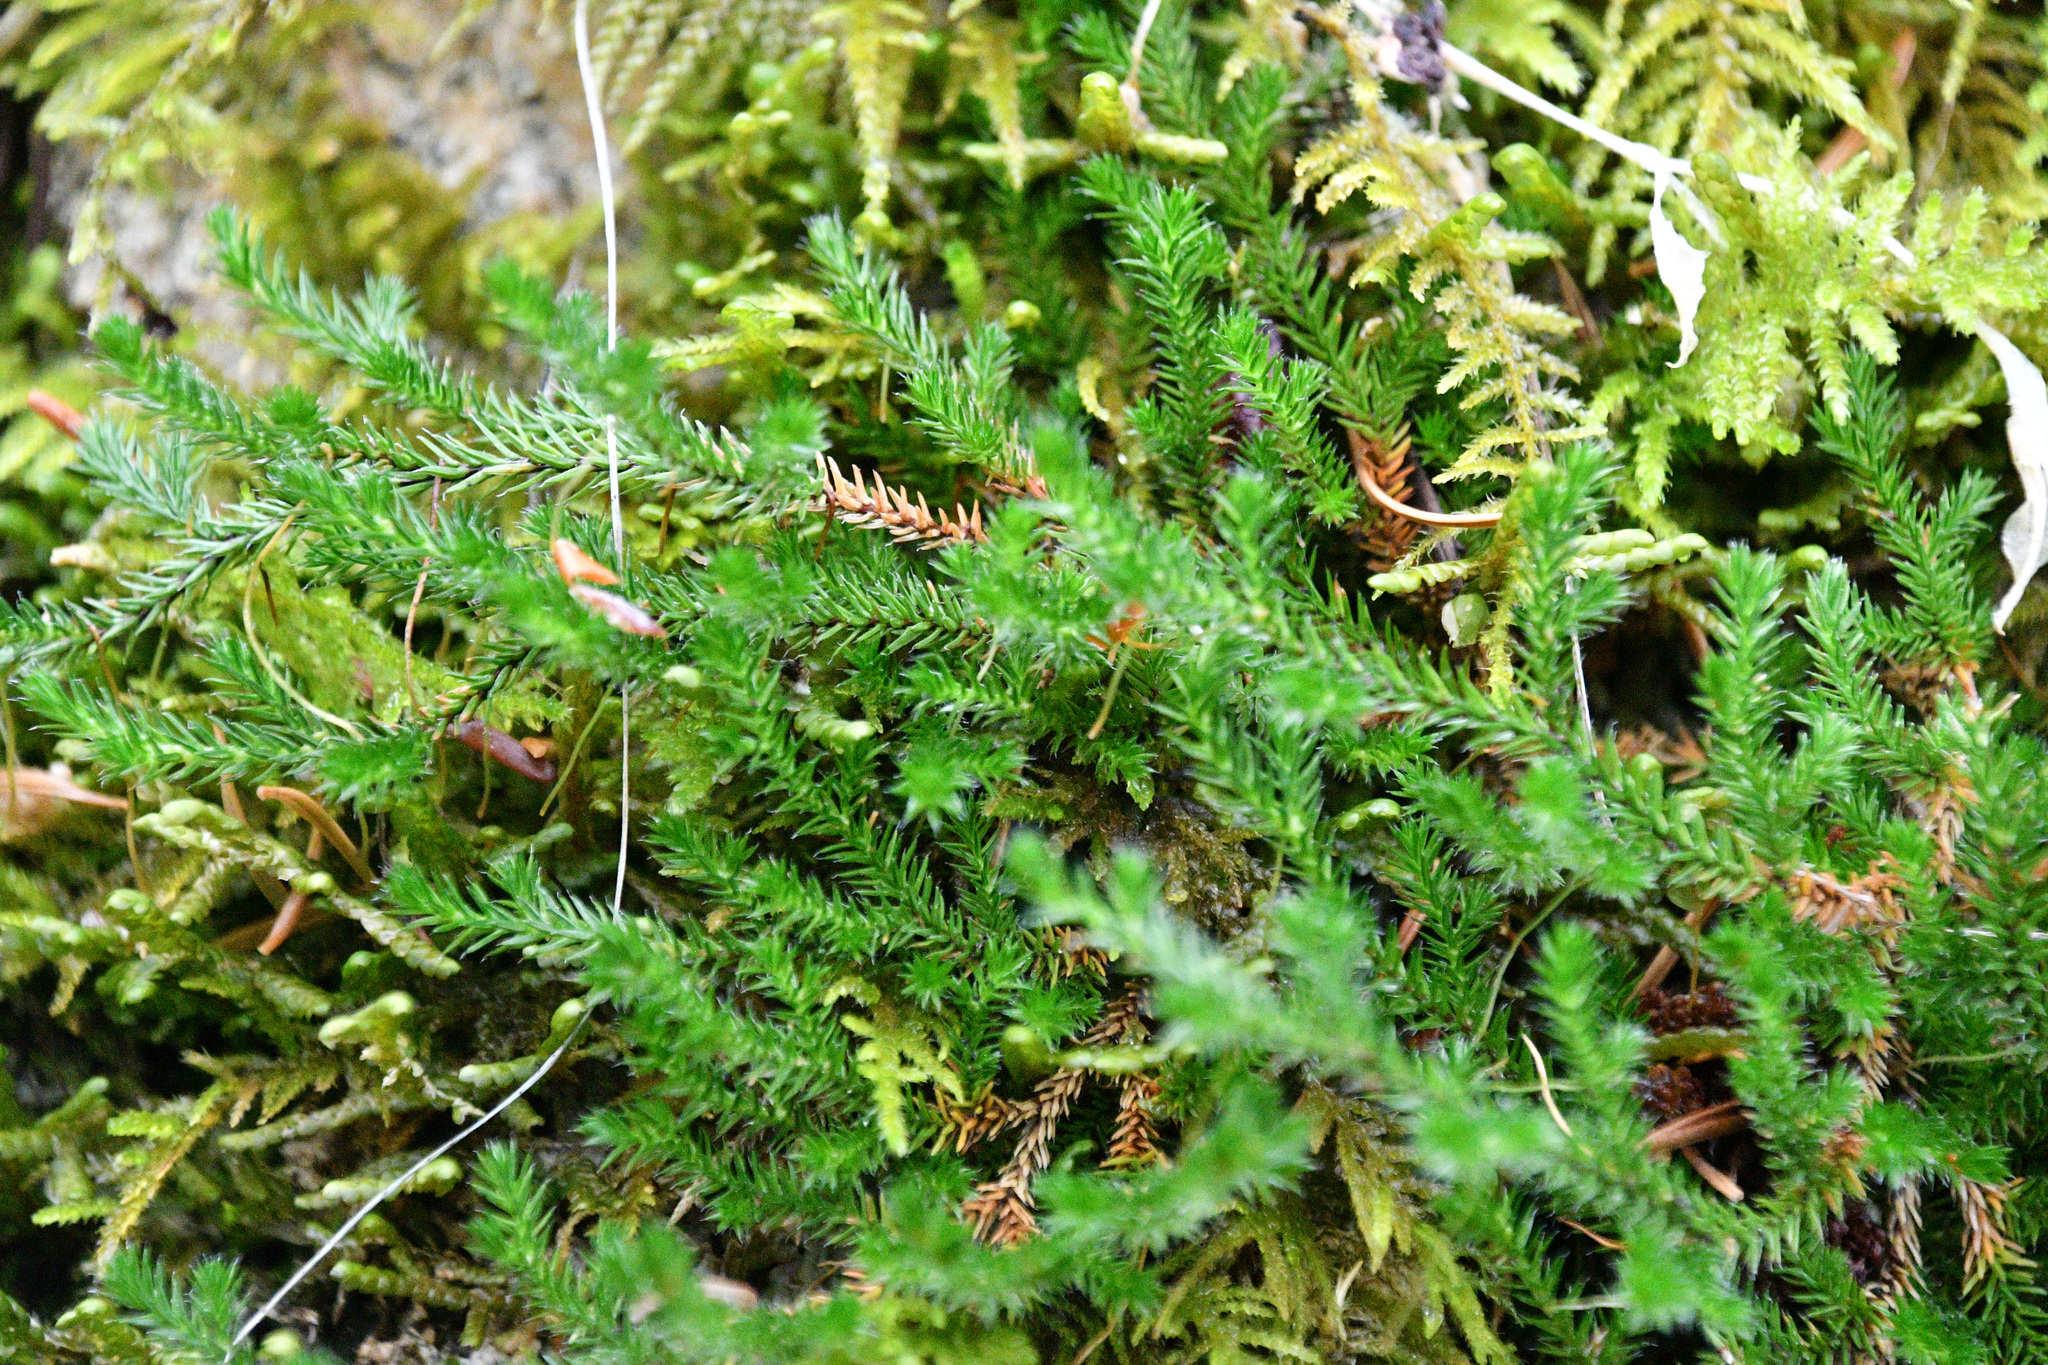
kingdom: Plantae
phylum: Tracheophyta
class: Lycopodiopsida
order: Selaginellales
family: Selaginellaceae
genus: Selaginella
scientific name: Selaginella wallacei
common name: Wallace's selaginella
